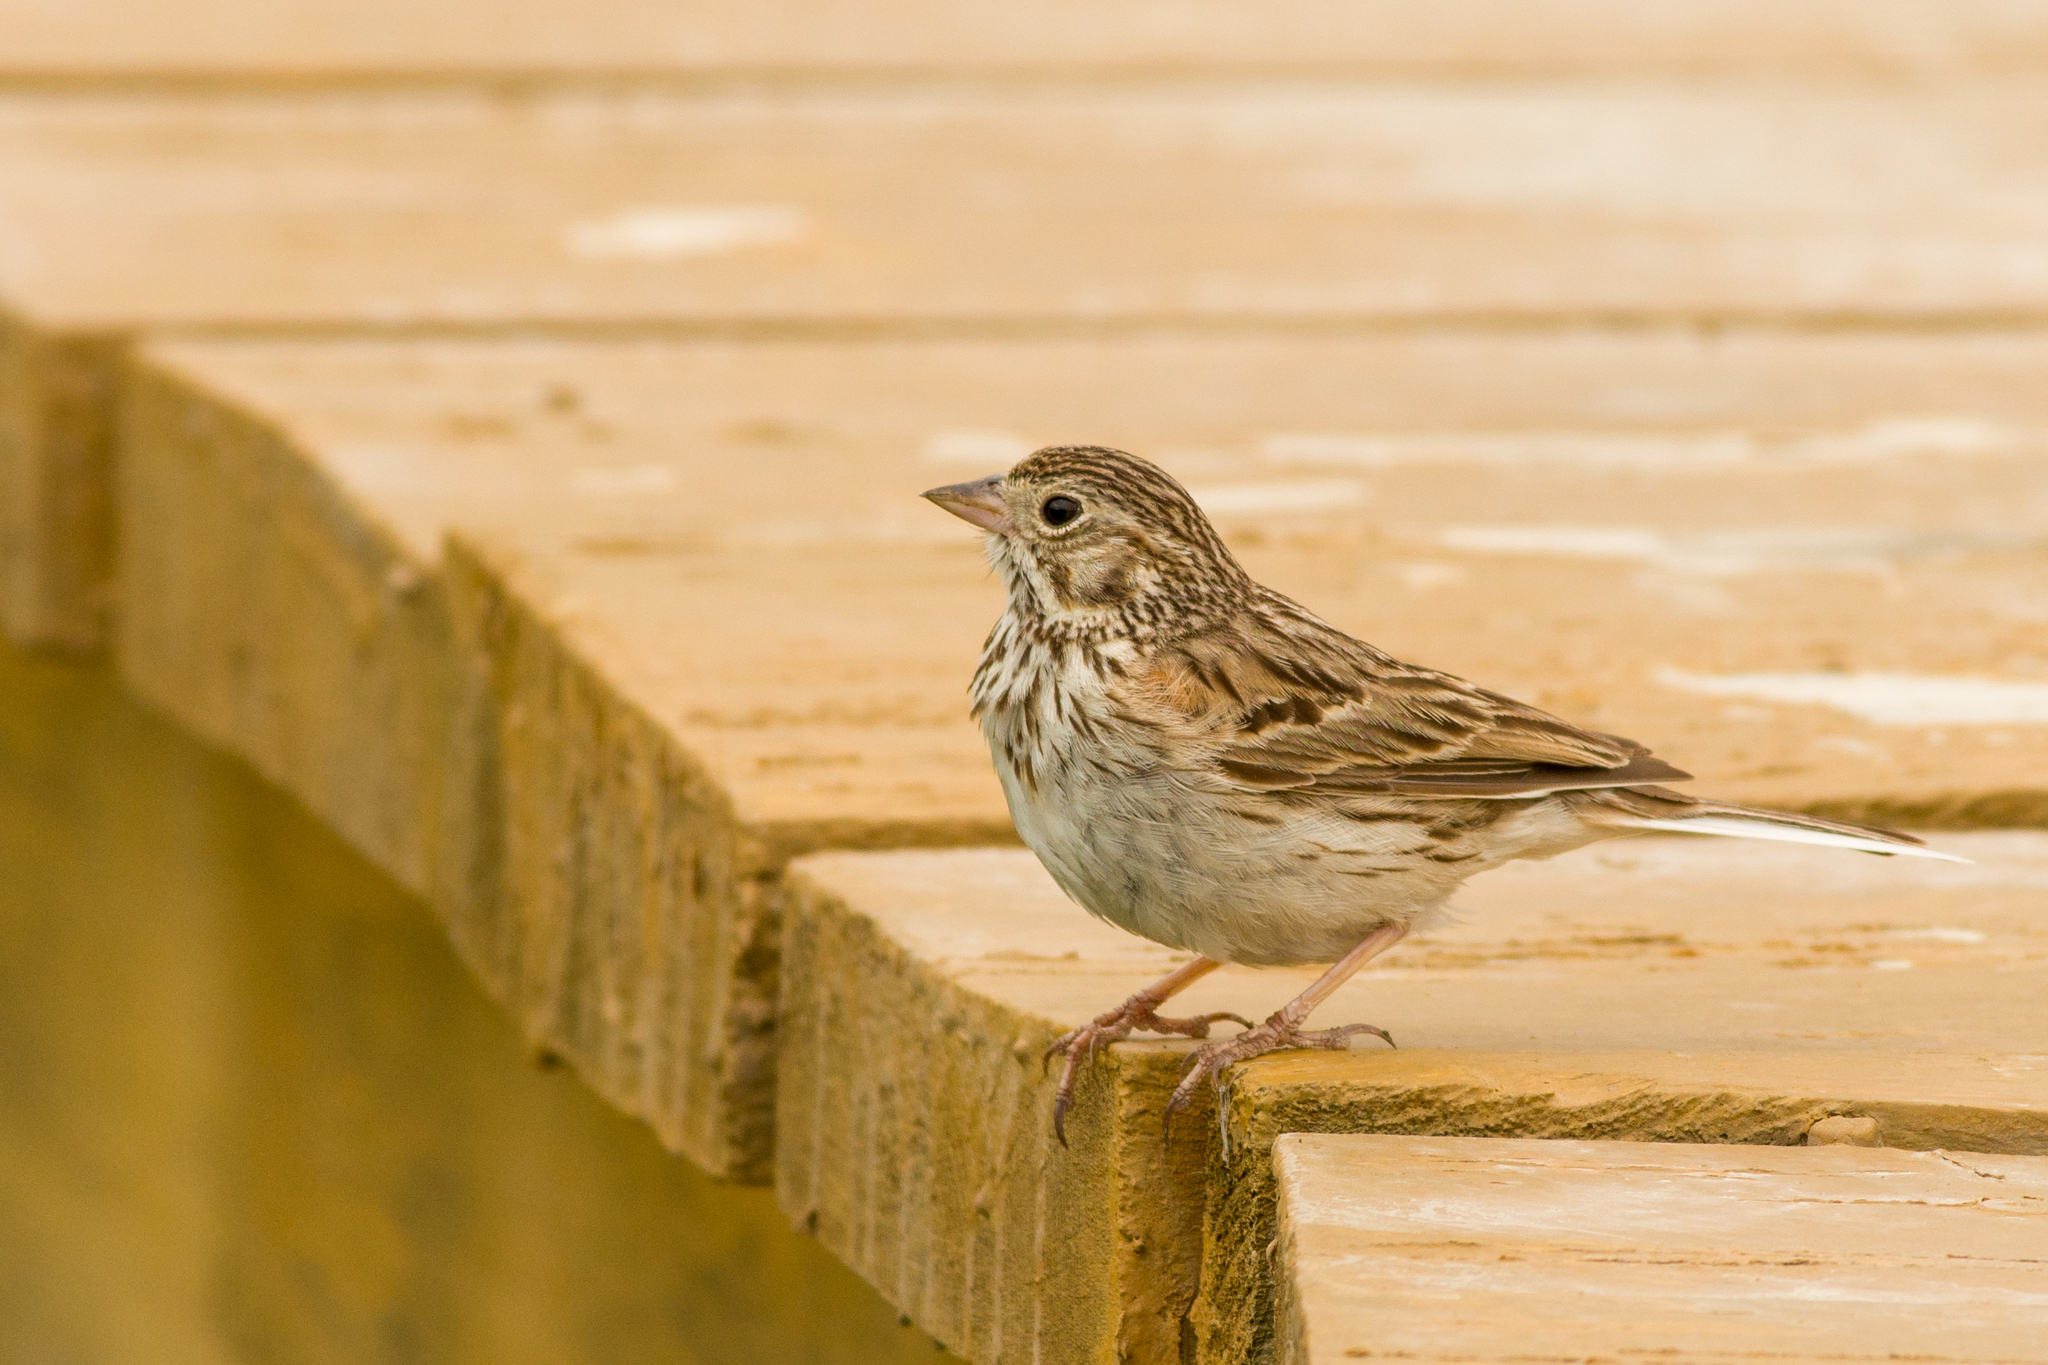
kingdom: Animalia
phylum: Chordata
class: Aves
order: Passeriformes
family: Passerellidae
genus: Pooecetes
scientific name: Pooecetes gramineus
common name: Vesper sparrow
